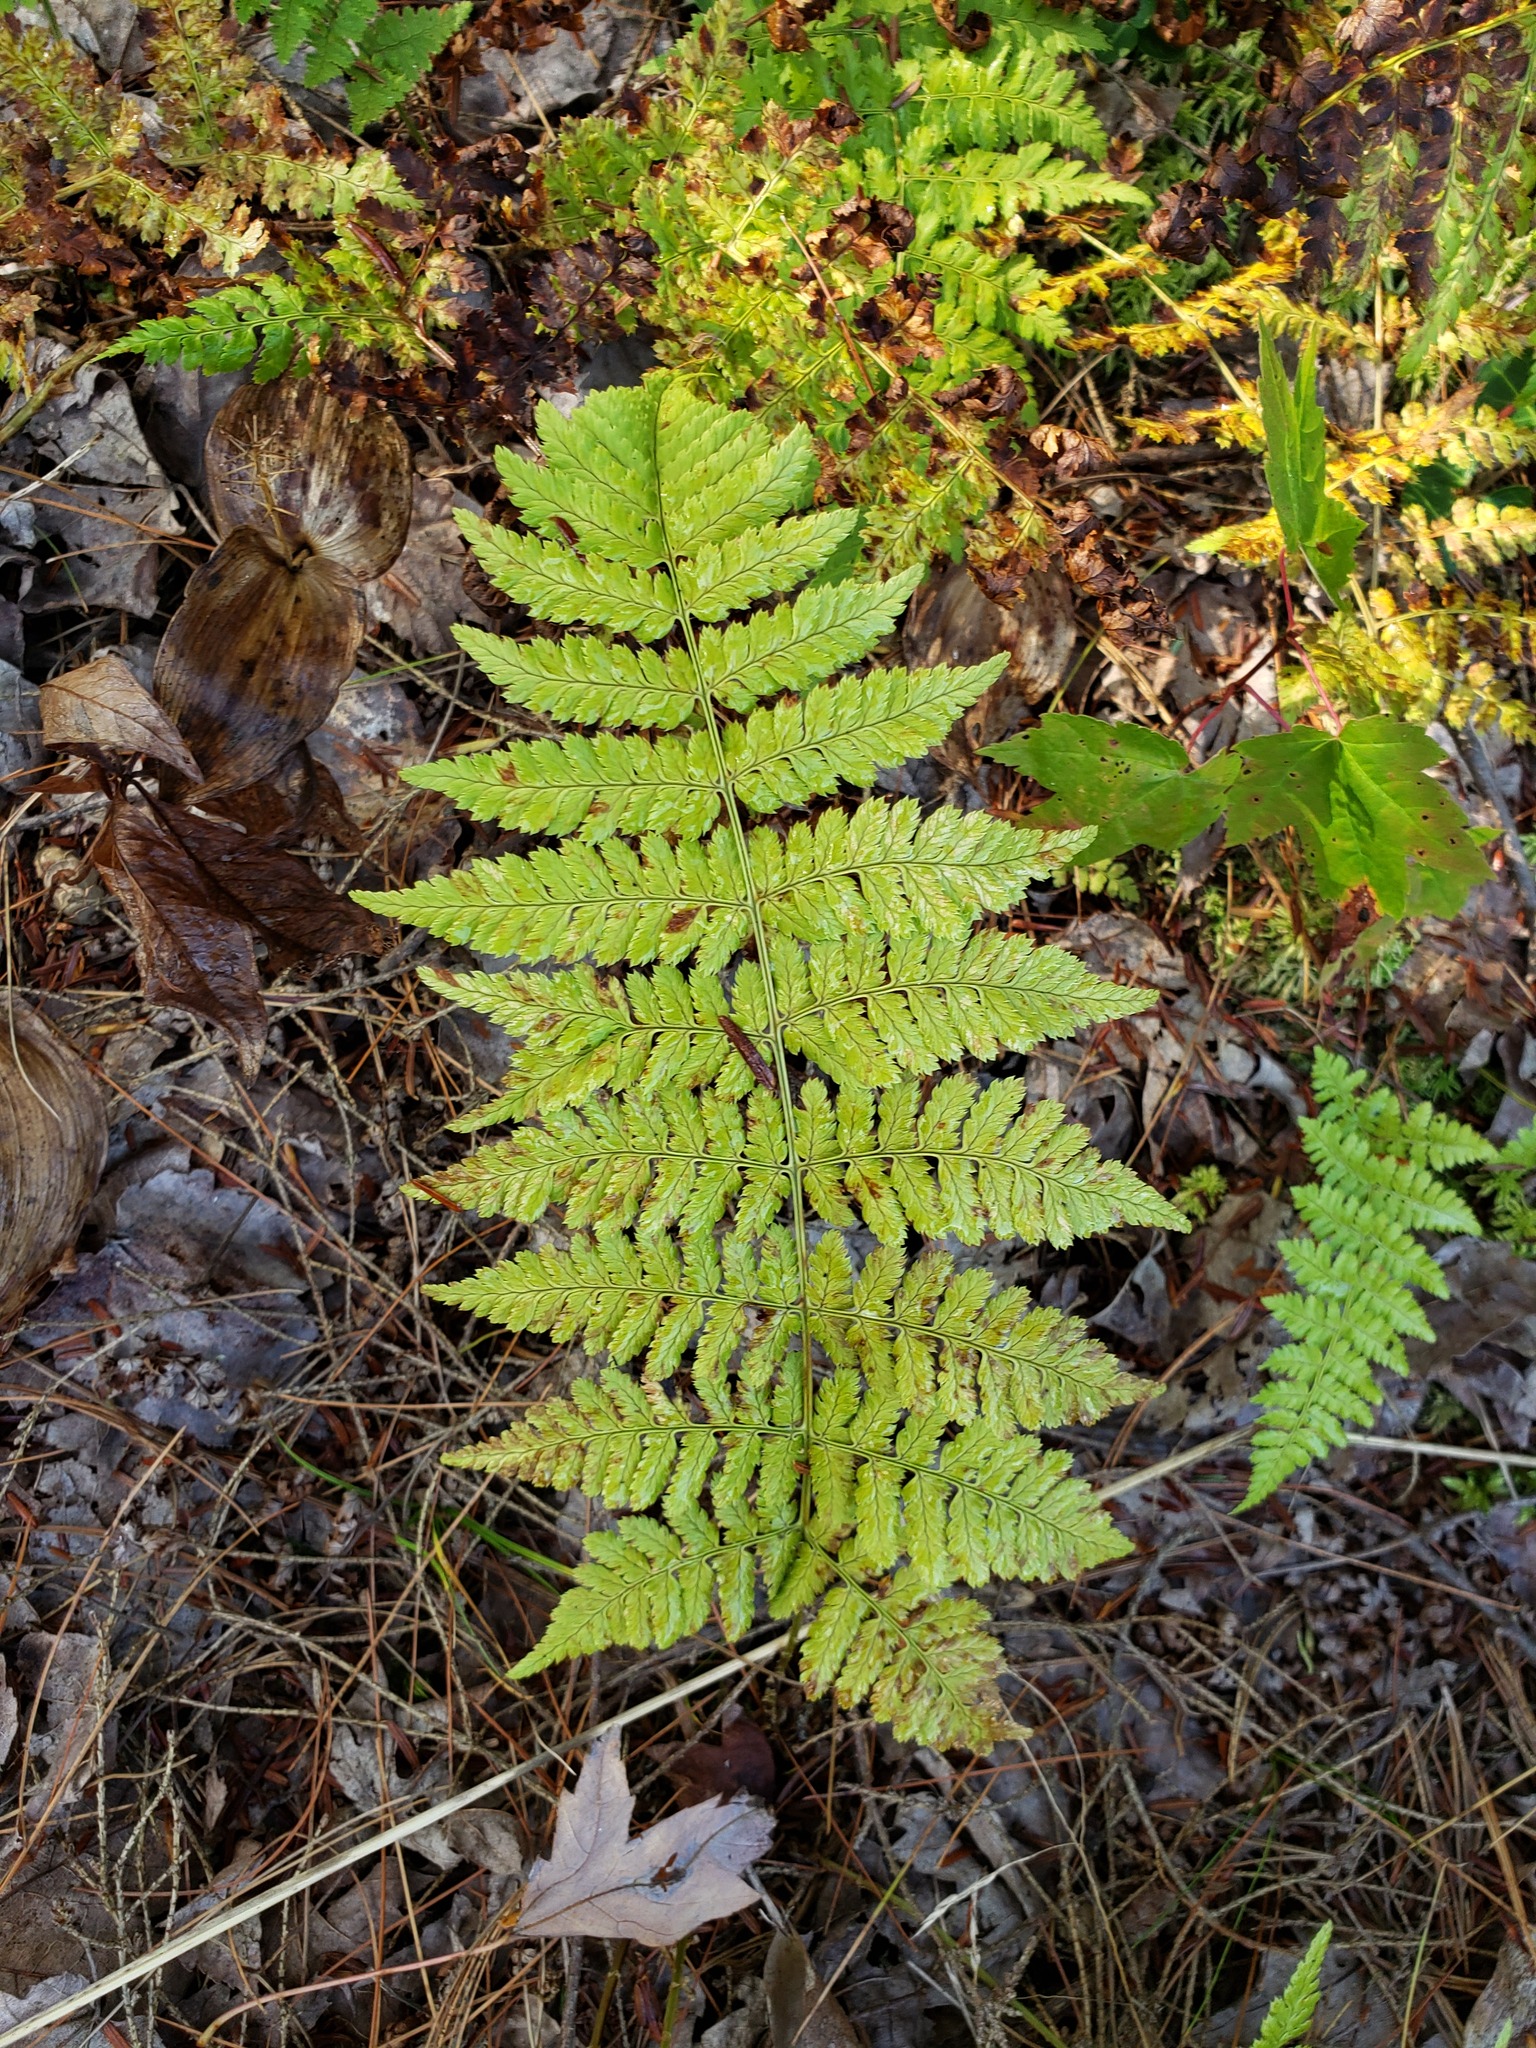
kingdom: Plantae
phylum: Tracheophyta
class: Polypodiopsida
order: Polypodiales
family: Dryopteridaceae
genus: Dryopteris
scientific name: Dryopteris intermedia
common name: Evergreen wood fern
